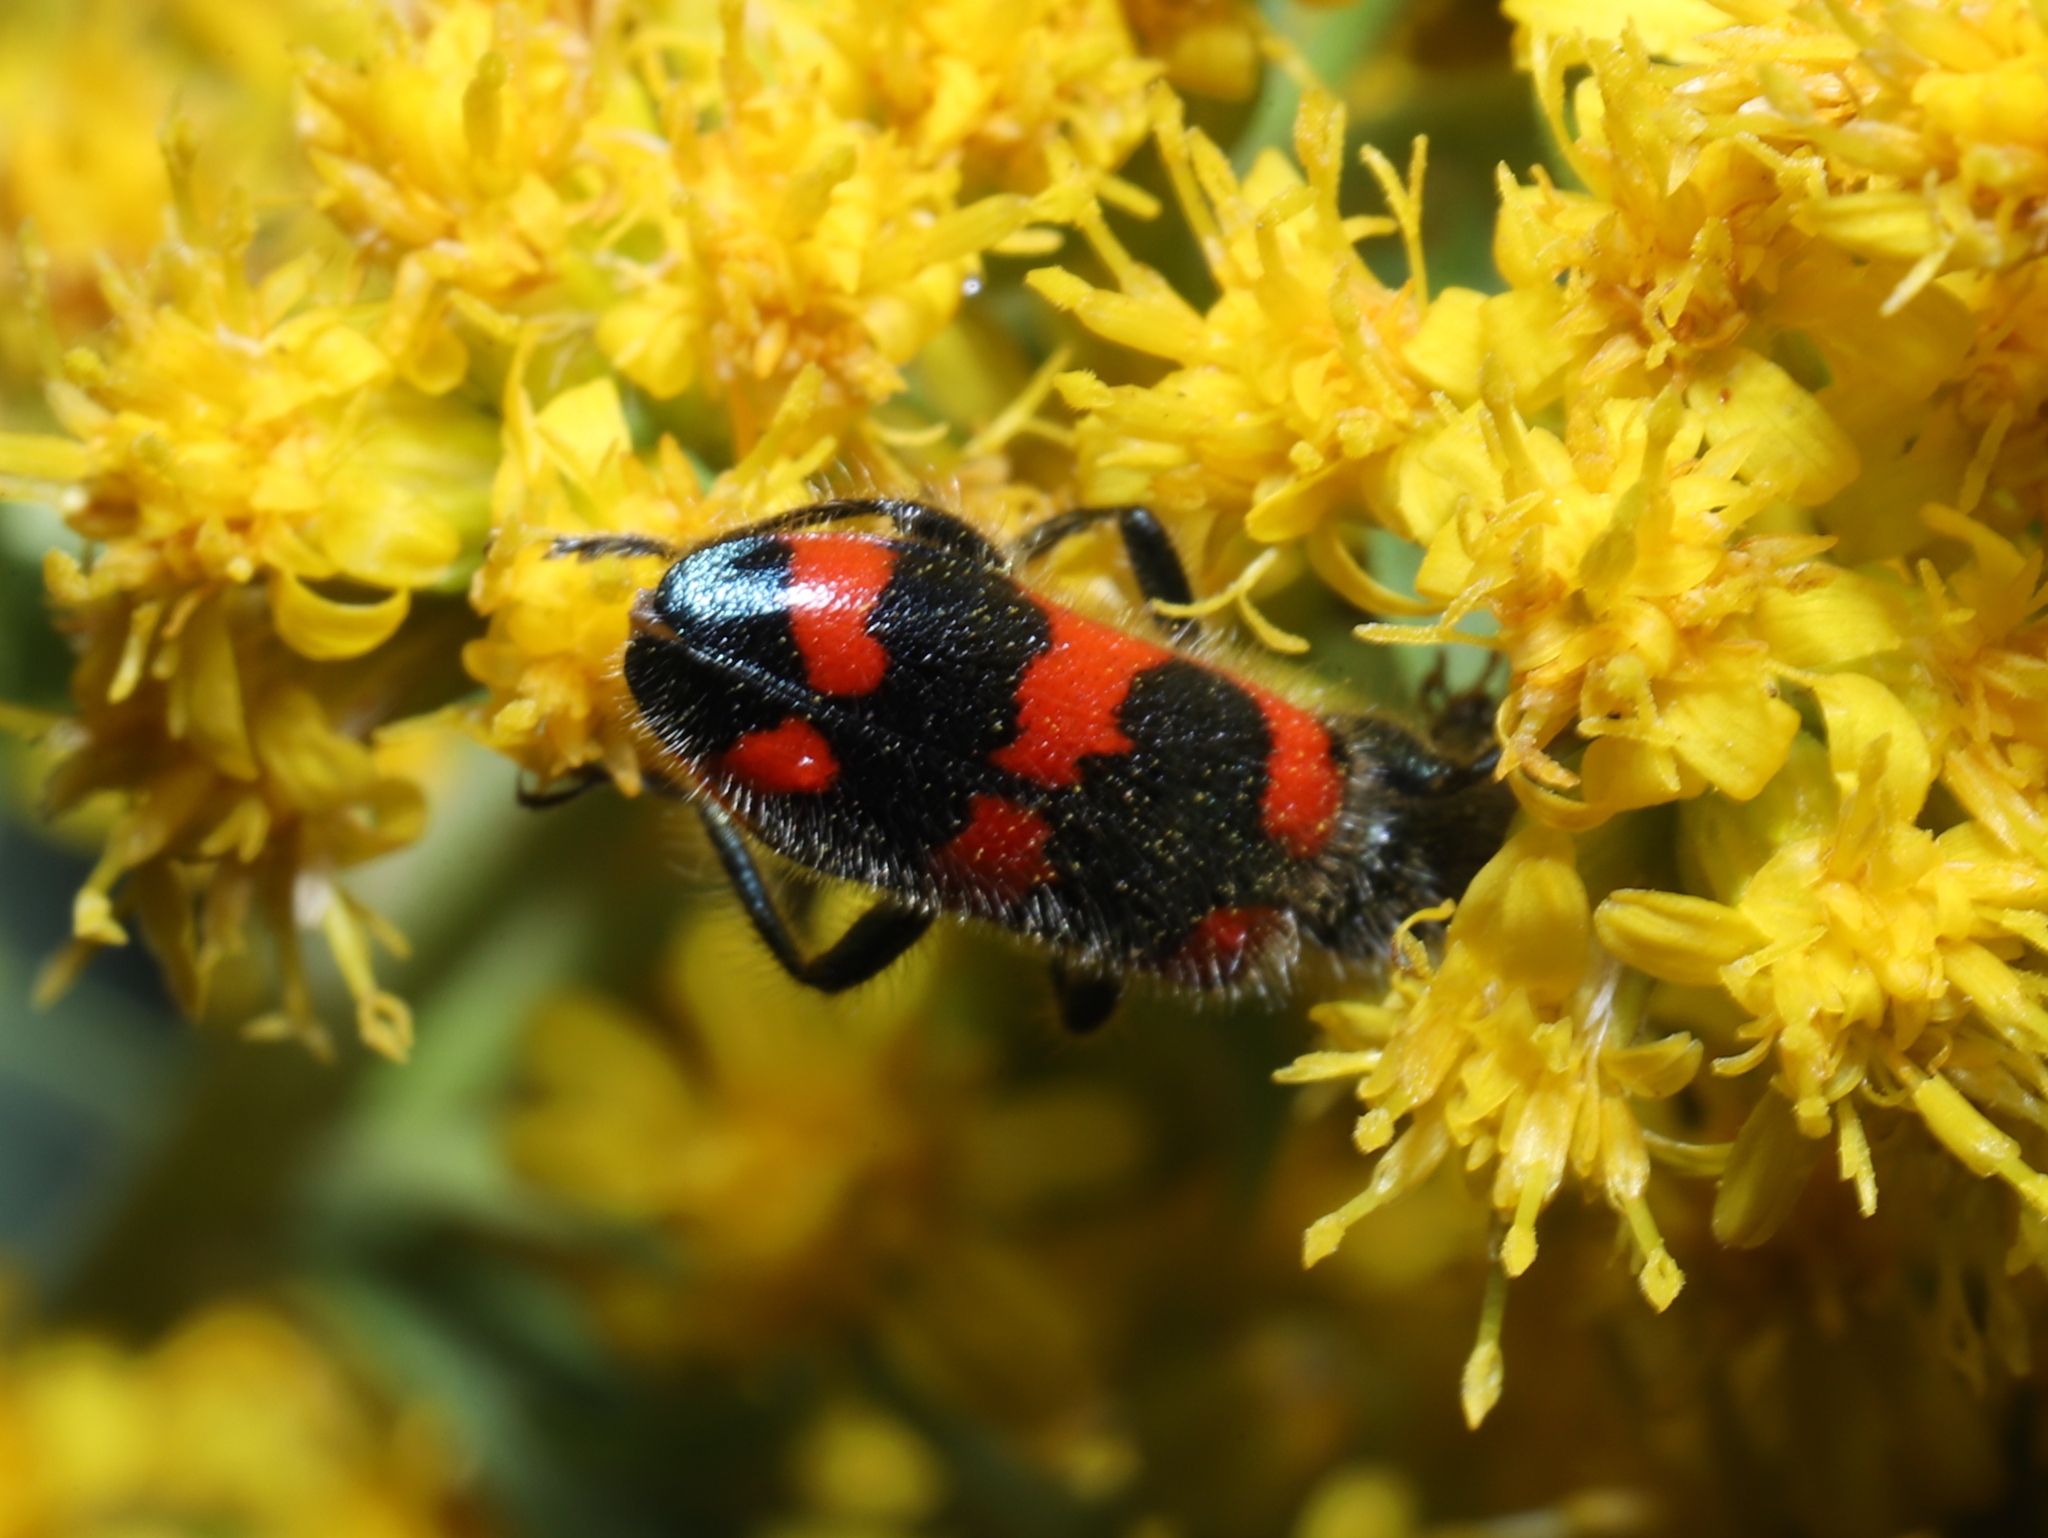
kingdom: Animalia
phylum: Arthropoda
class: Insecta
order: Coleoptera
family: Cleridae
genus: Trichodes
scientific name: Trichodes nutalli
